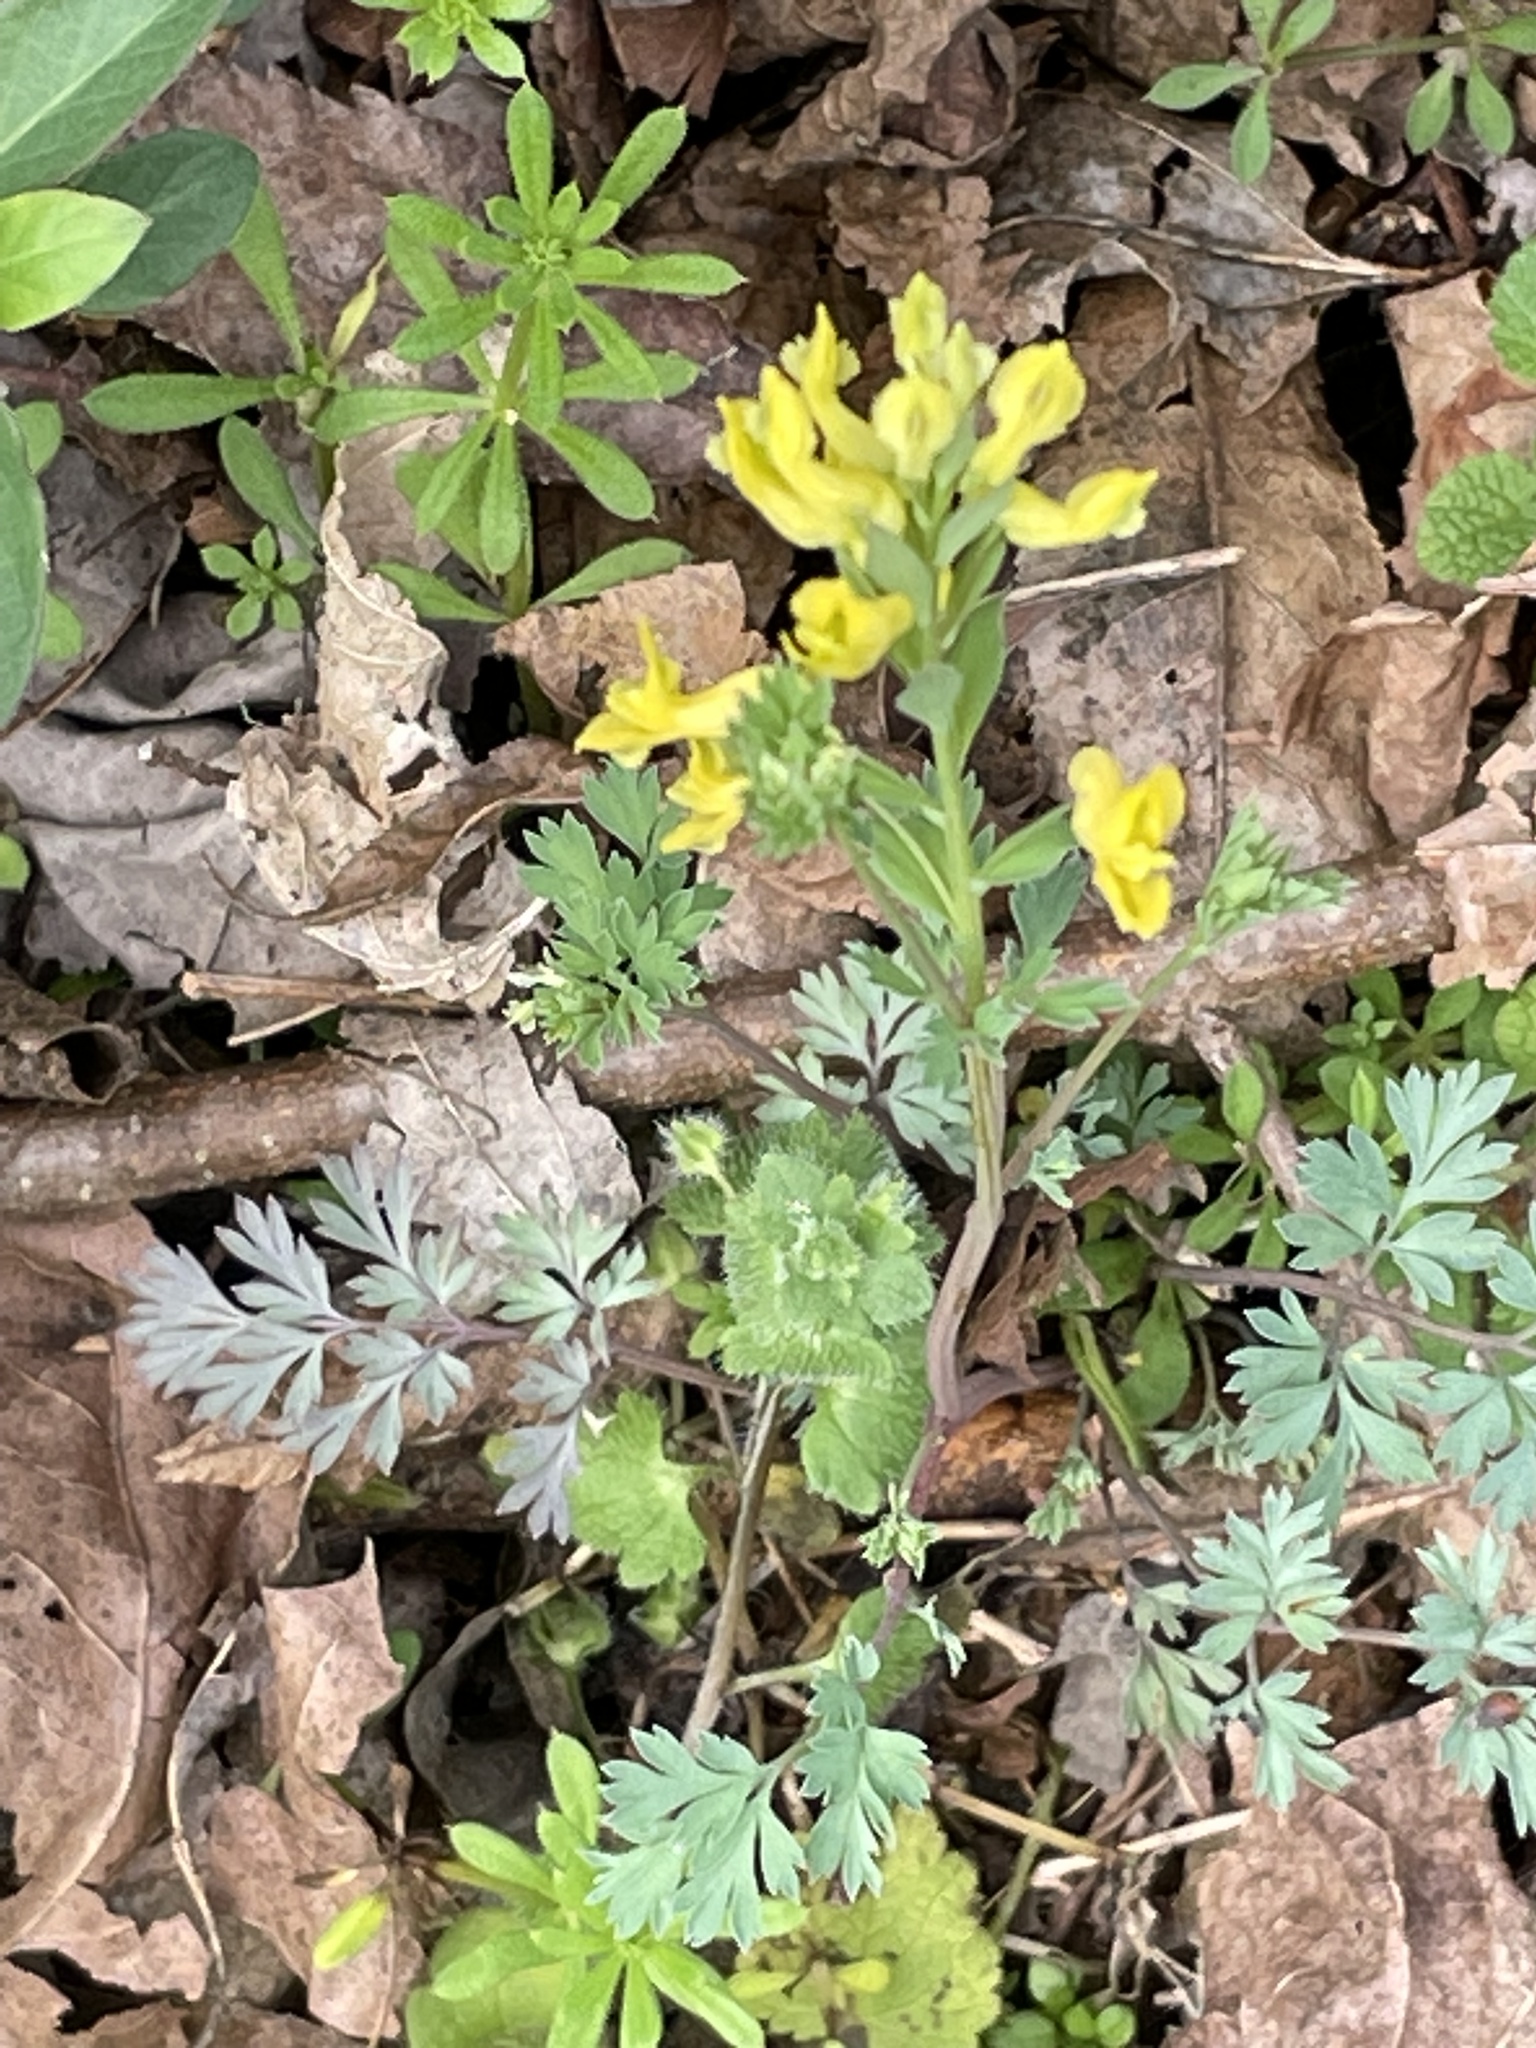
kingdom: Plantae
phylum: Tracheophyta
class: Magnoliopsida
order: Ranunculales
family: Papaveraceae
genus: Corydalis
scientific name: Corydalis flavula
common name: Yellow corydalis
